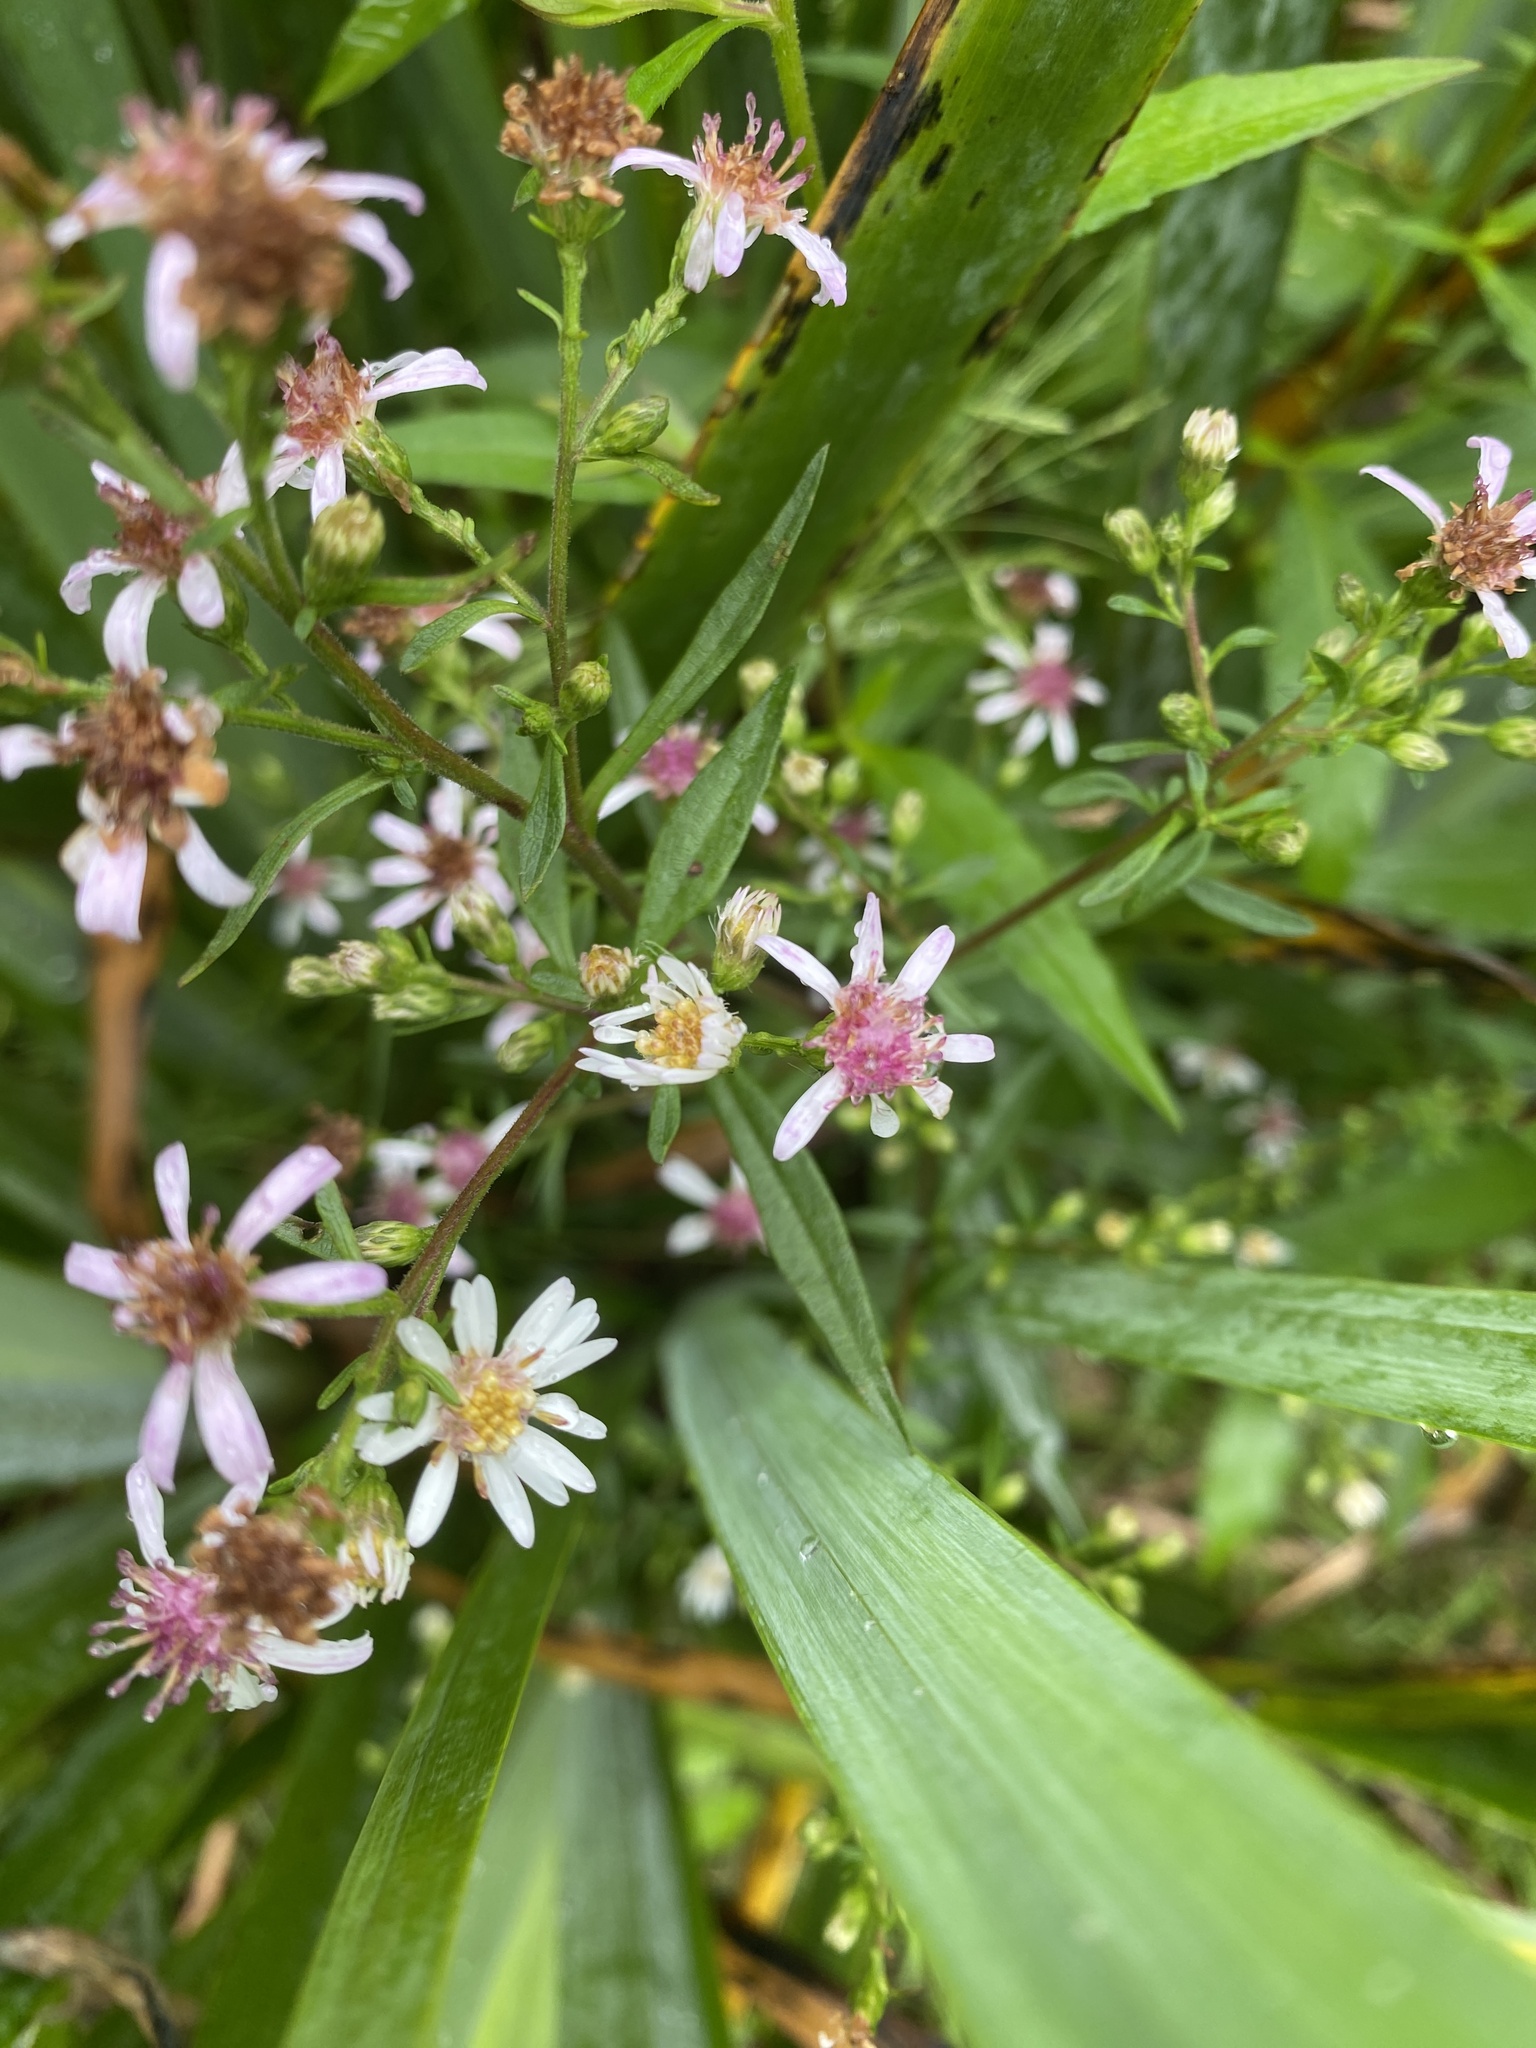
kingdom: Plantae
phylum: Tracheophyta
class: Magnoliopsida
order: Asterales
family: Asteraceae
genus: Symphyotrichum
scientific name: Symphyotrichum lateriflorum
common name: Calico aster
